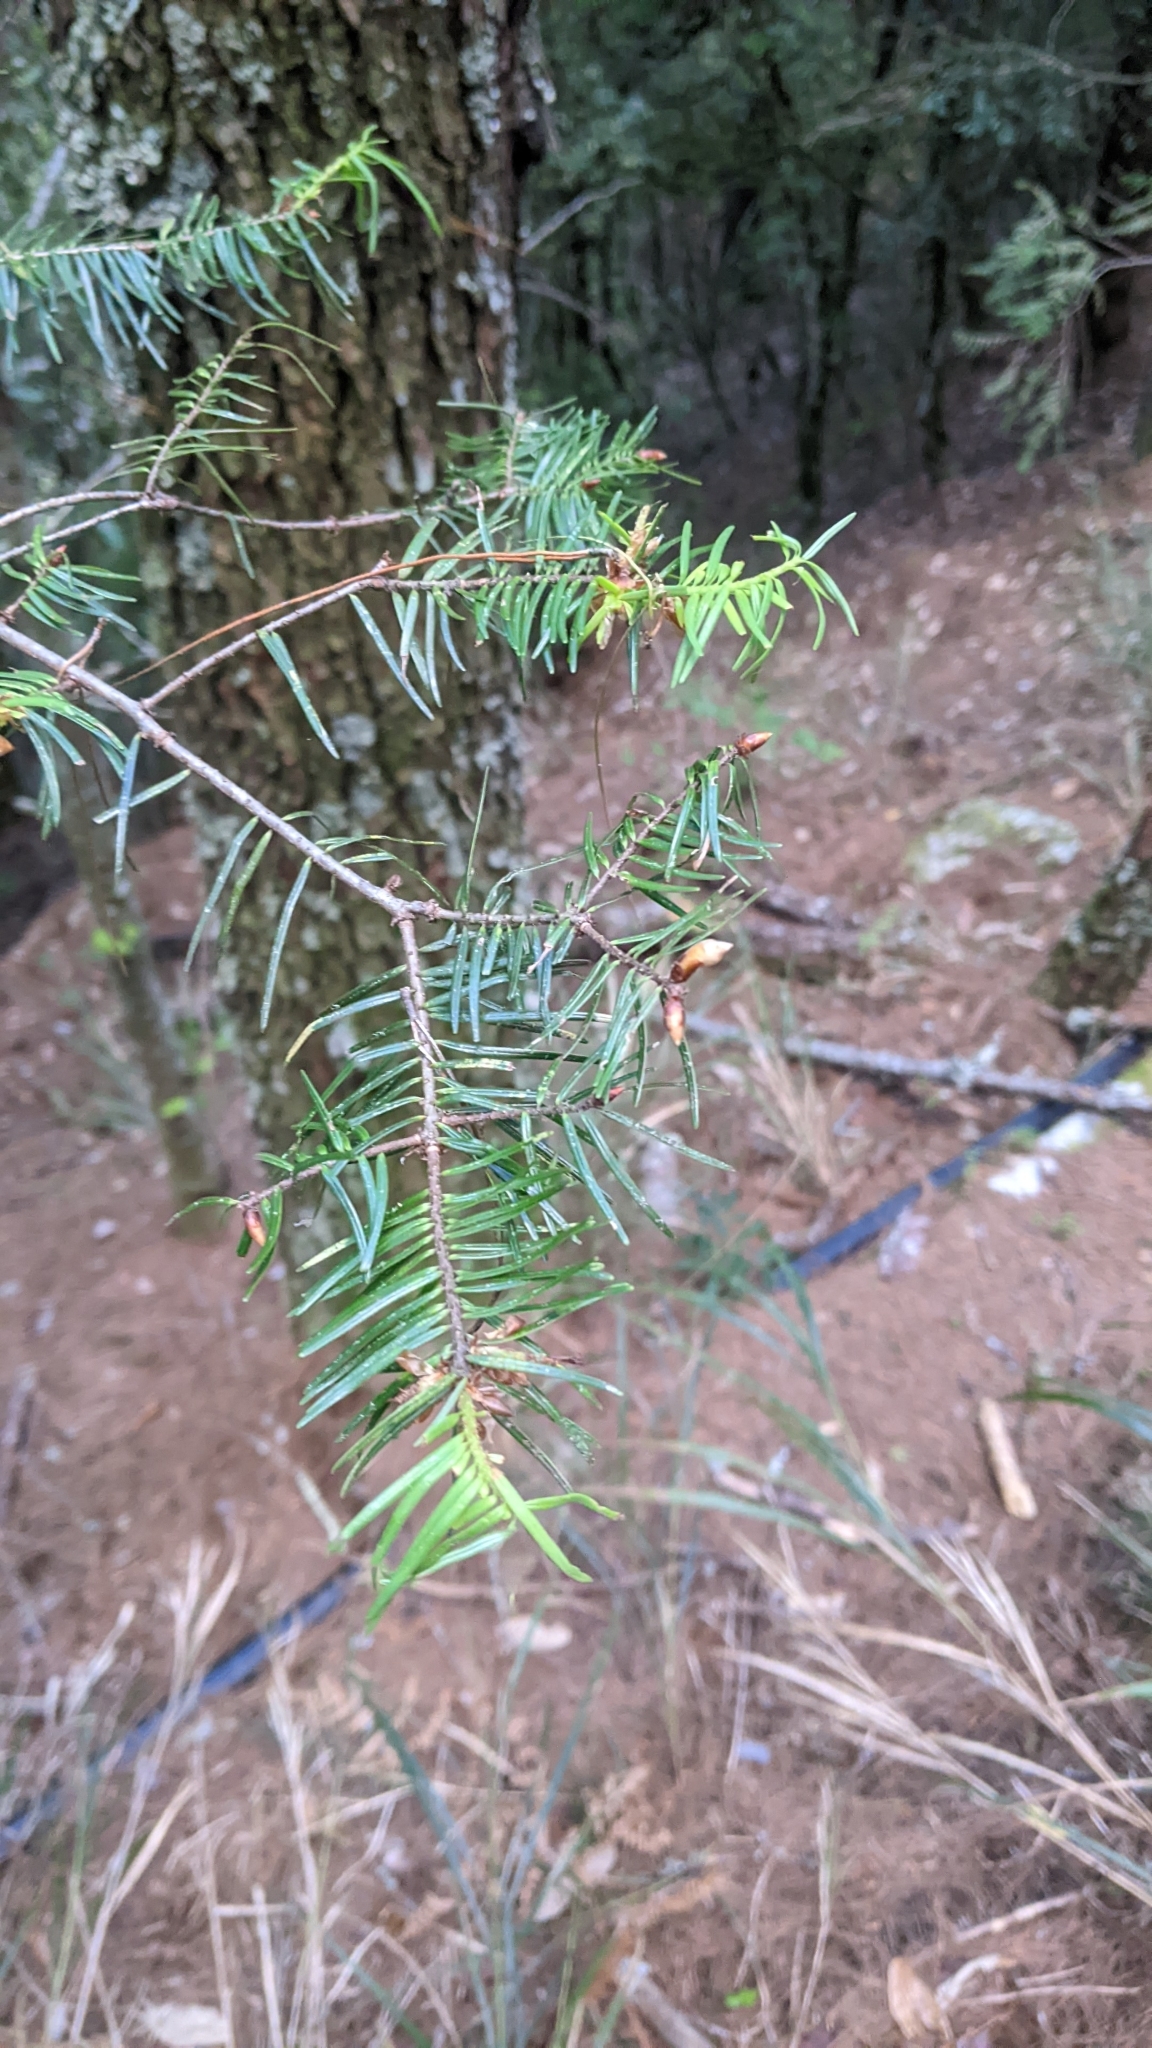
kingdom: Plantae
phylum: Tracheophyta
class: Pinopsida
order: Pinales
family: Pinaceae
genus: Pseudotsuga
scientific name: Pseudotsuga sinensis
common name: Chinese douglas-fir
